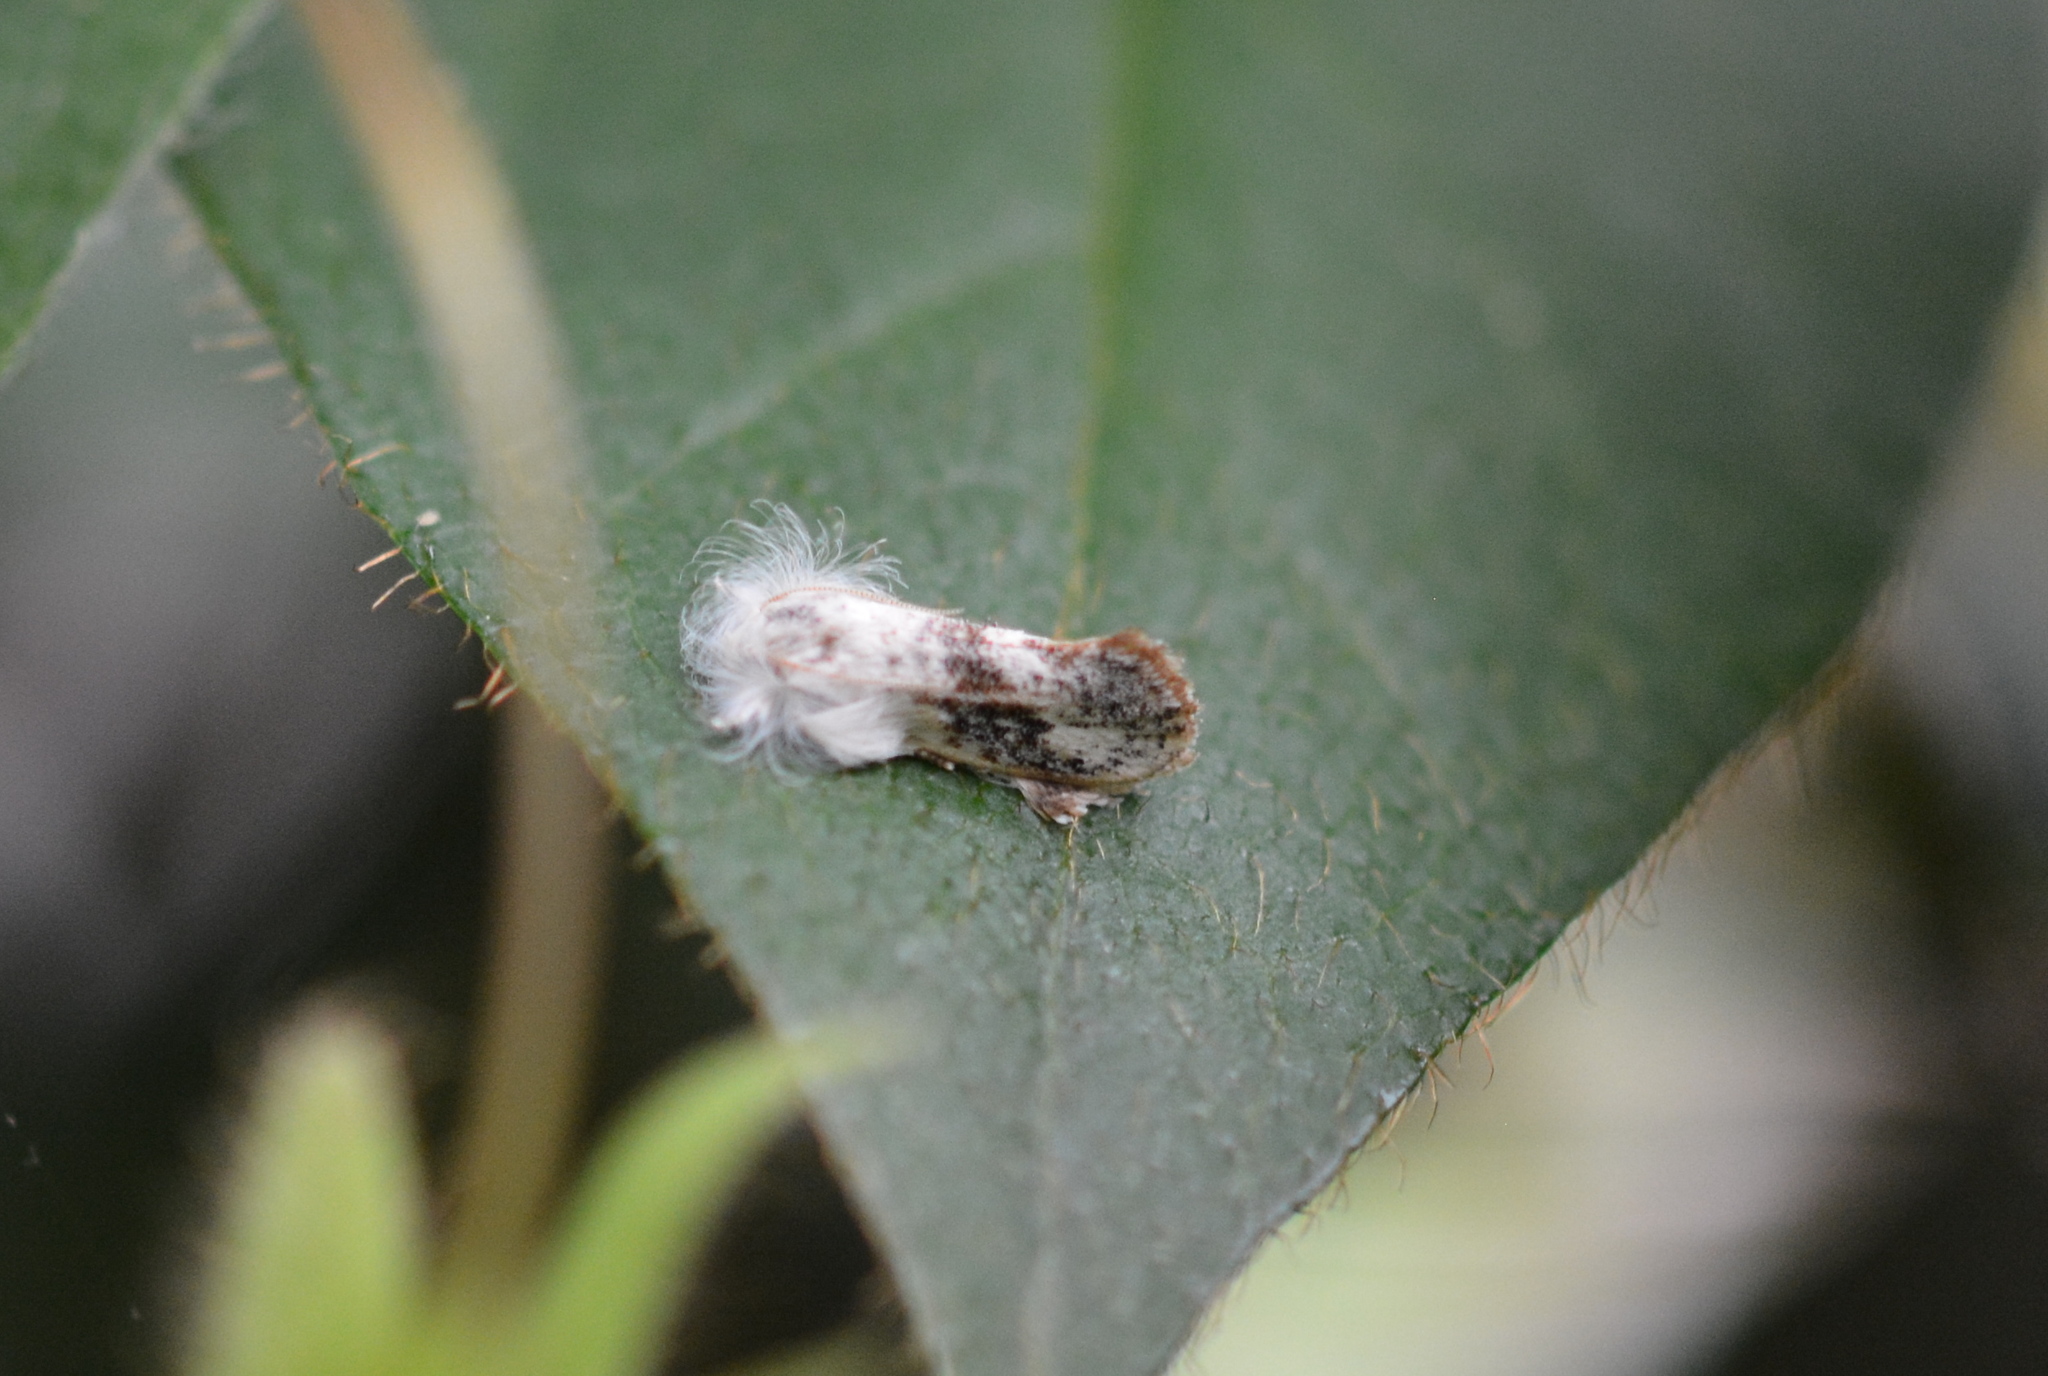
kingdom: Animalia
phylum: Arthropoda
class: Insecta
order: Lepidoptera
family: Tineidae
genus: Acrolophus
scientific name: Acrolophus mycetophagus
